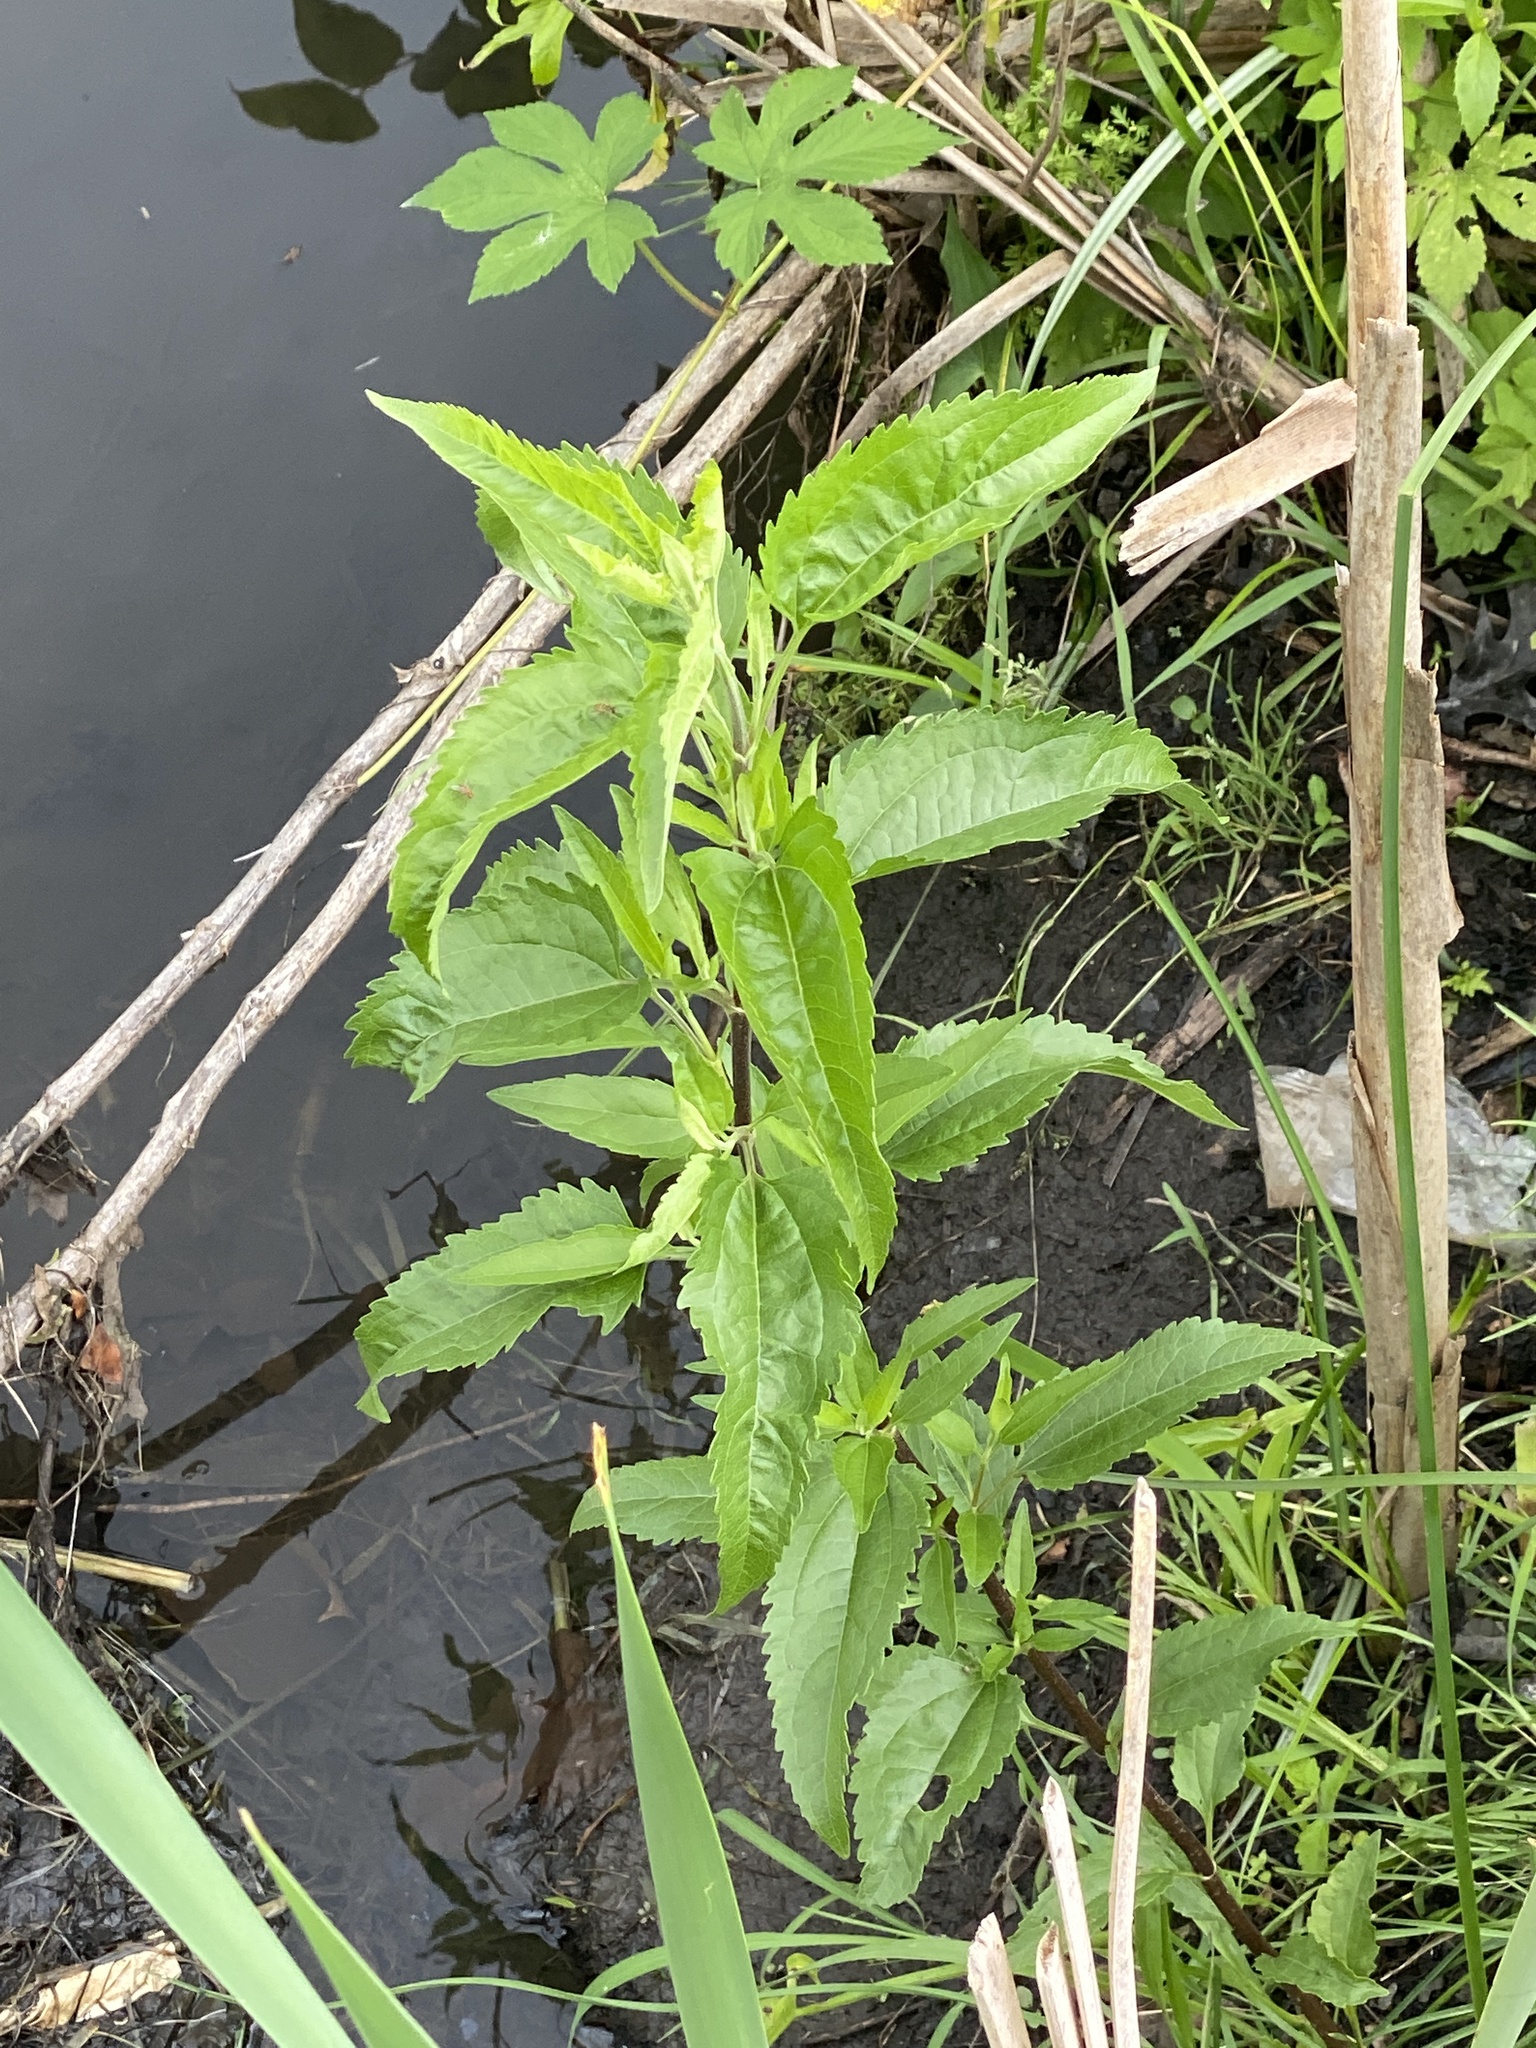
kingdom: Plantae
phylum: Tracheophyta
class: Magnoliopsida
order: Asterales
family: Asteraceae
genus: Eupatorium
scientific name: Eupatorium serotinum
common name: Late boneset
